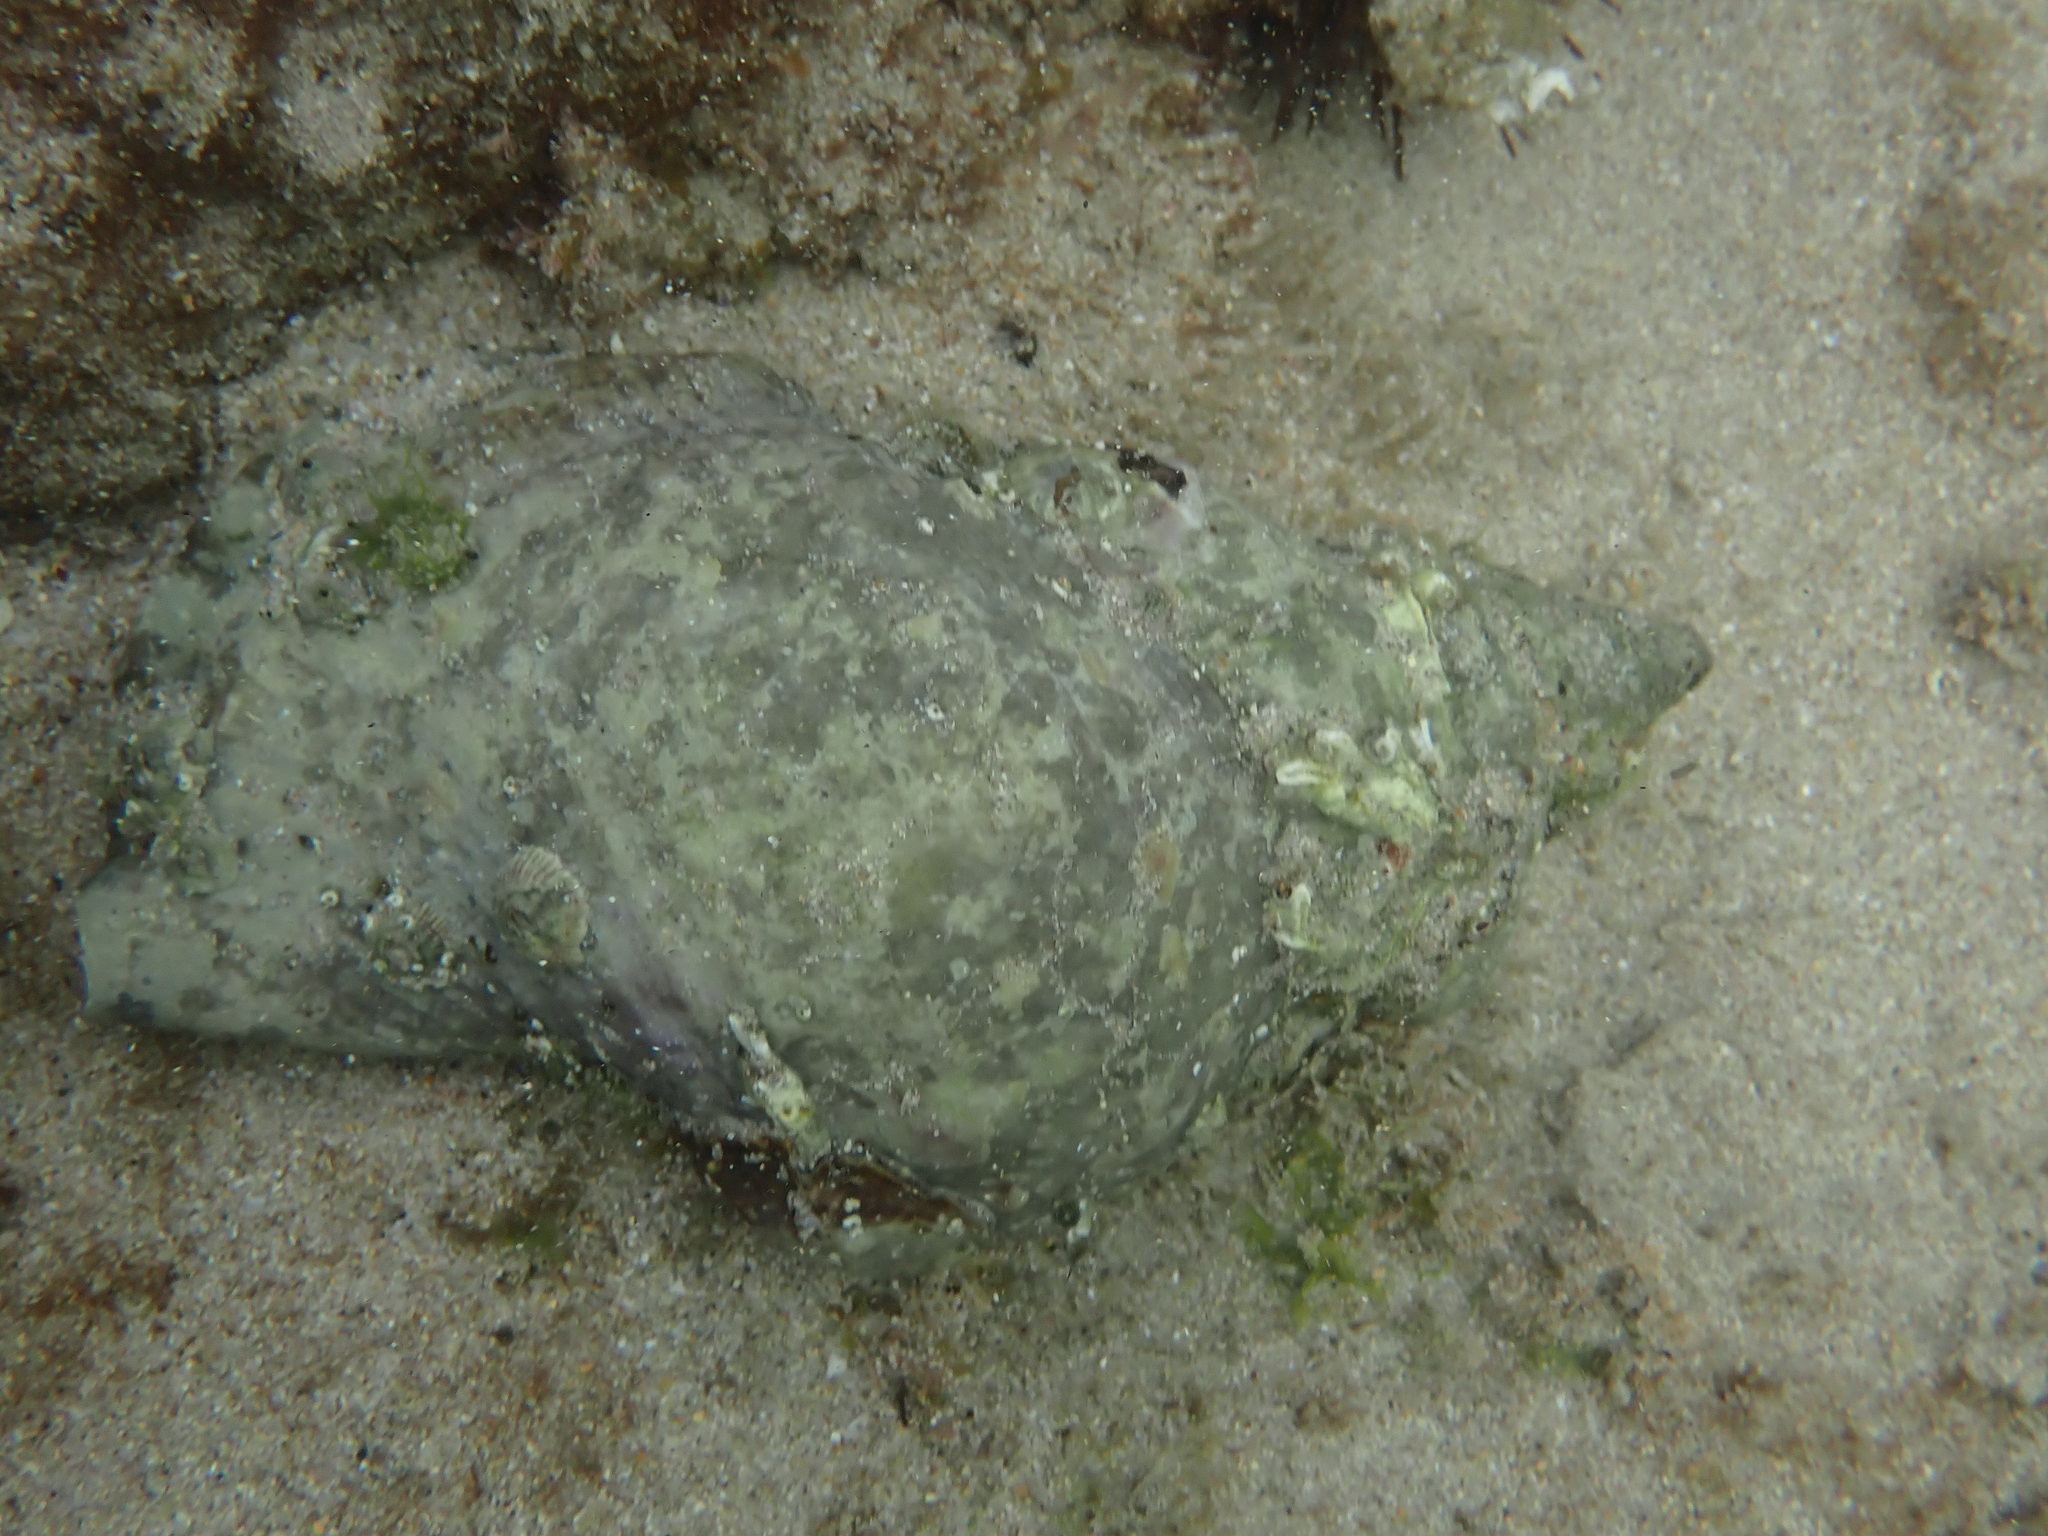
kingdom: Animalia
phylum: Mollusca
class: Gastropoda
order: Littorinimorpha
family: Charoniidae
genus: Charonia
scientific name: Charonia lampas
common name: Knobbed triton
